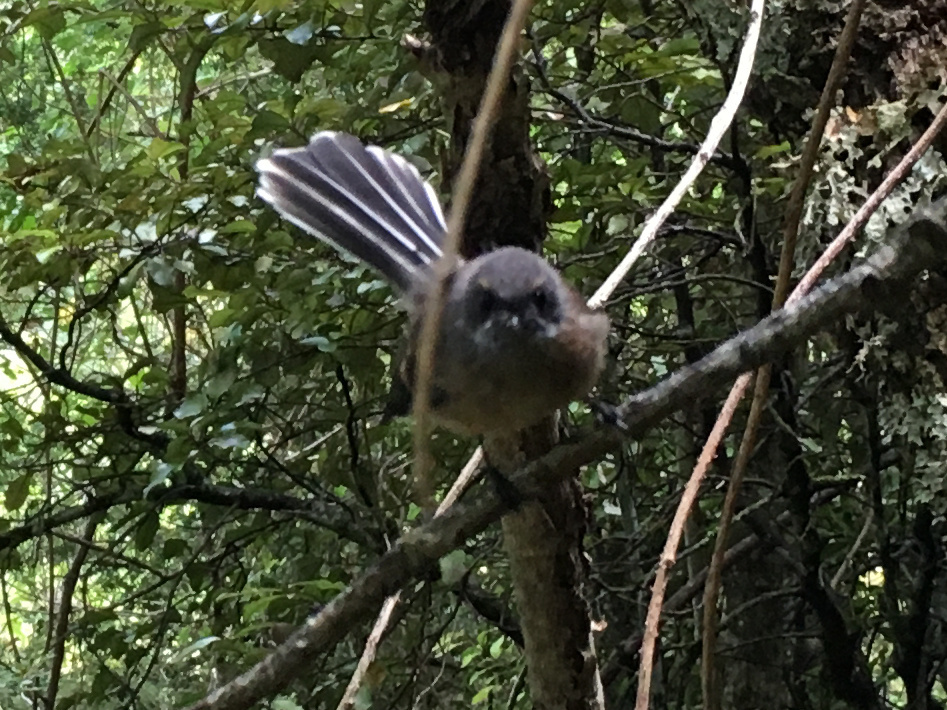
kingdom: Animalia
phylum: Chordata
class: Aves
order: Passeriformes
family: Rhipiduridae
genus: Rhipidura
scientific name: Rhipidura fuliginosa
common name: New zealand fantail
